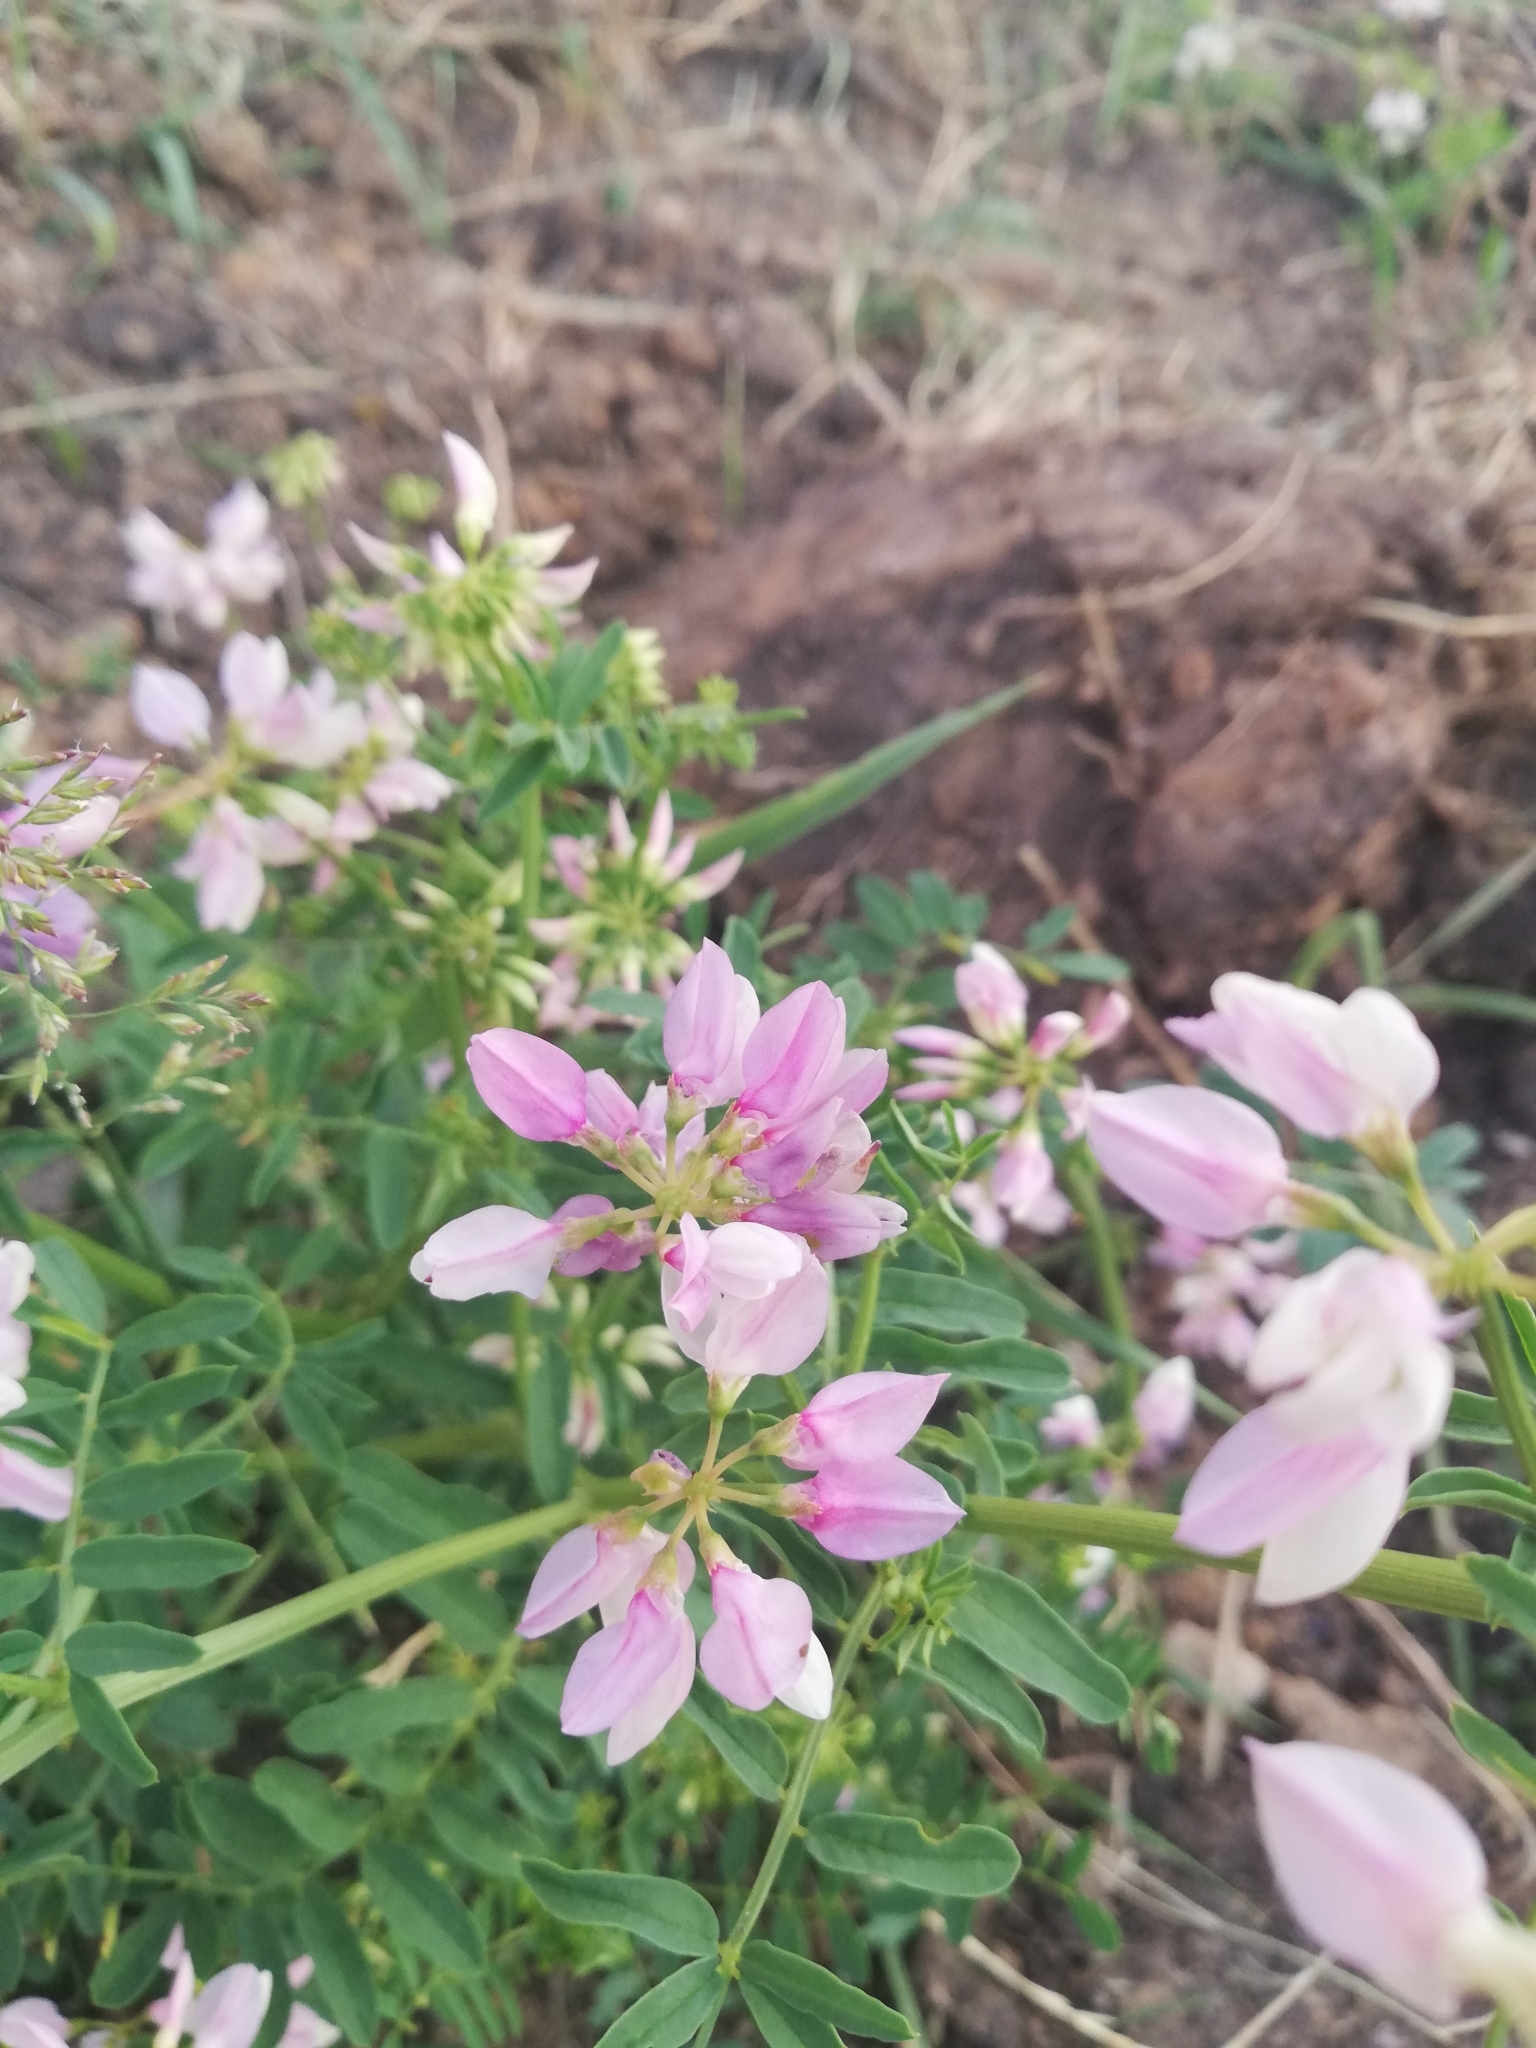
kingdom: Plantae
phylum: Tracheophyta
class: Magnoliopsida
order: Fabales
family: Fabaceae
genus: Coronilla
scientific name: Coronilla varia
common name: Crownvetch
